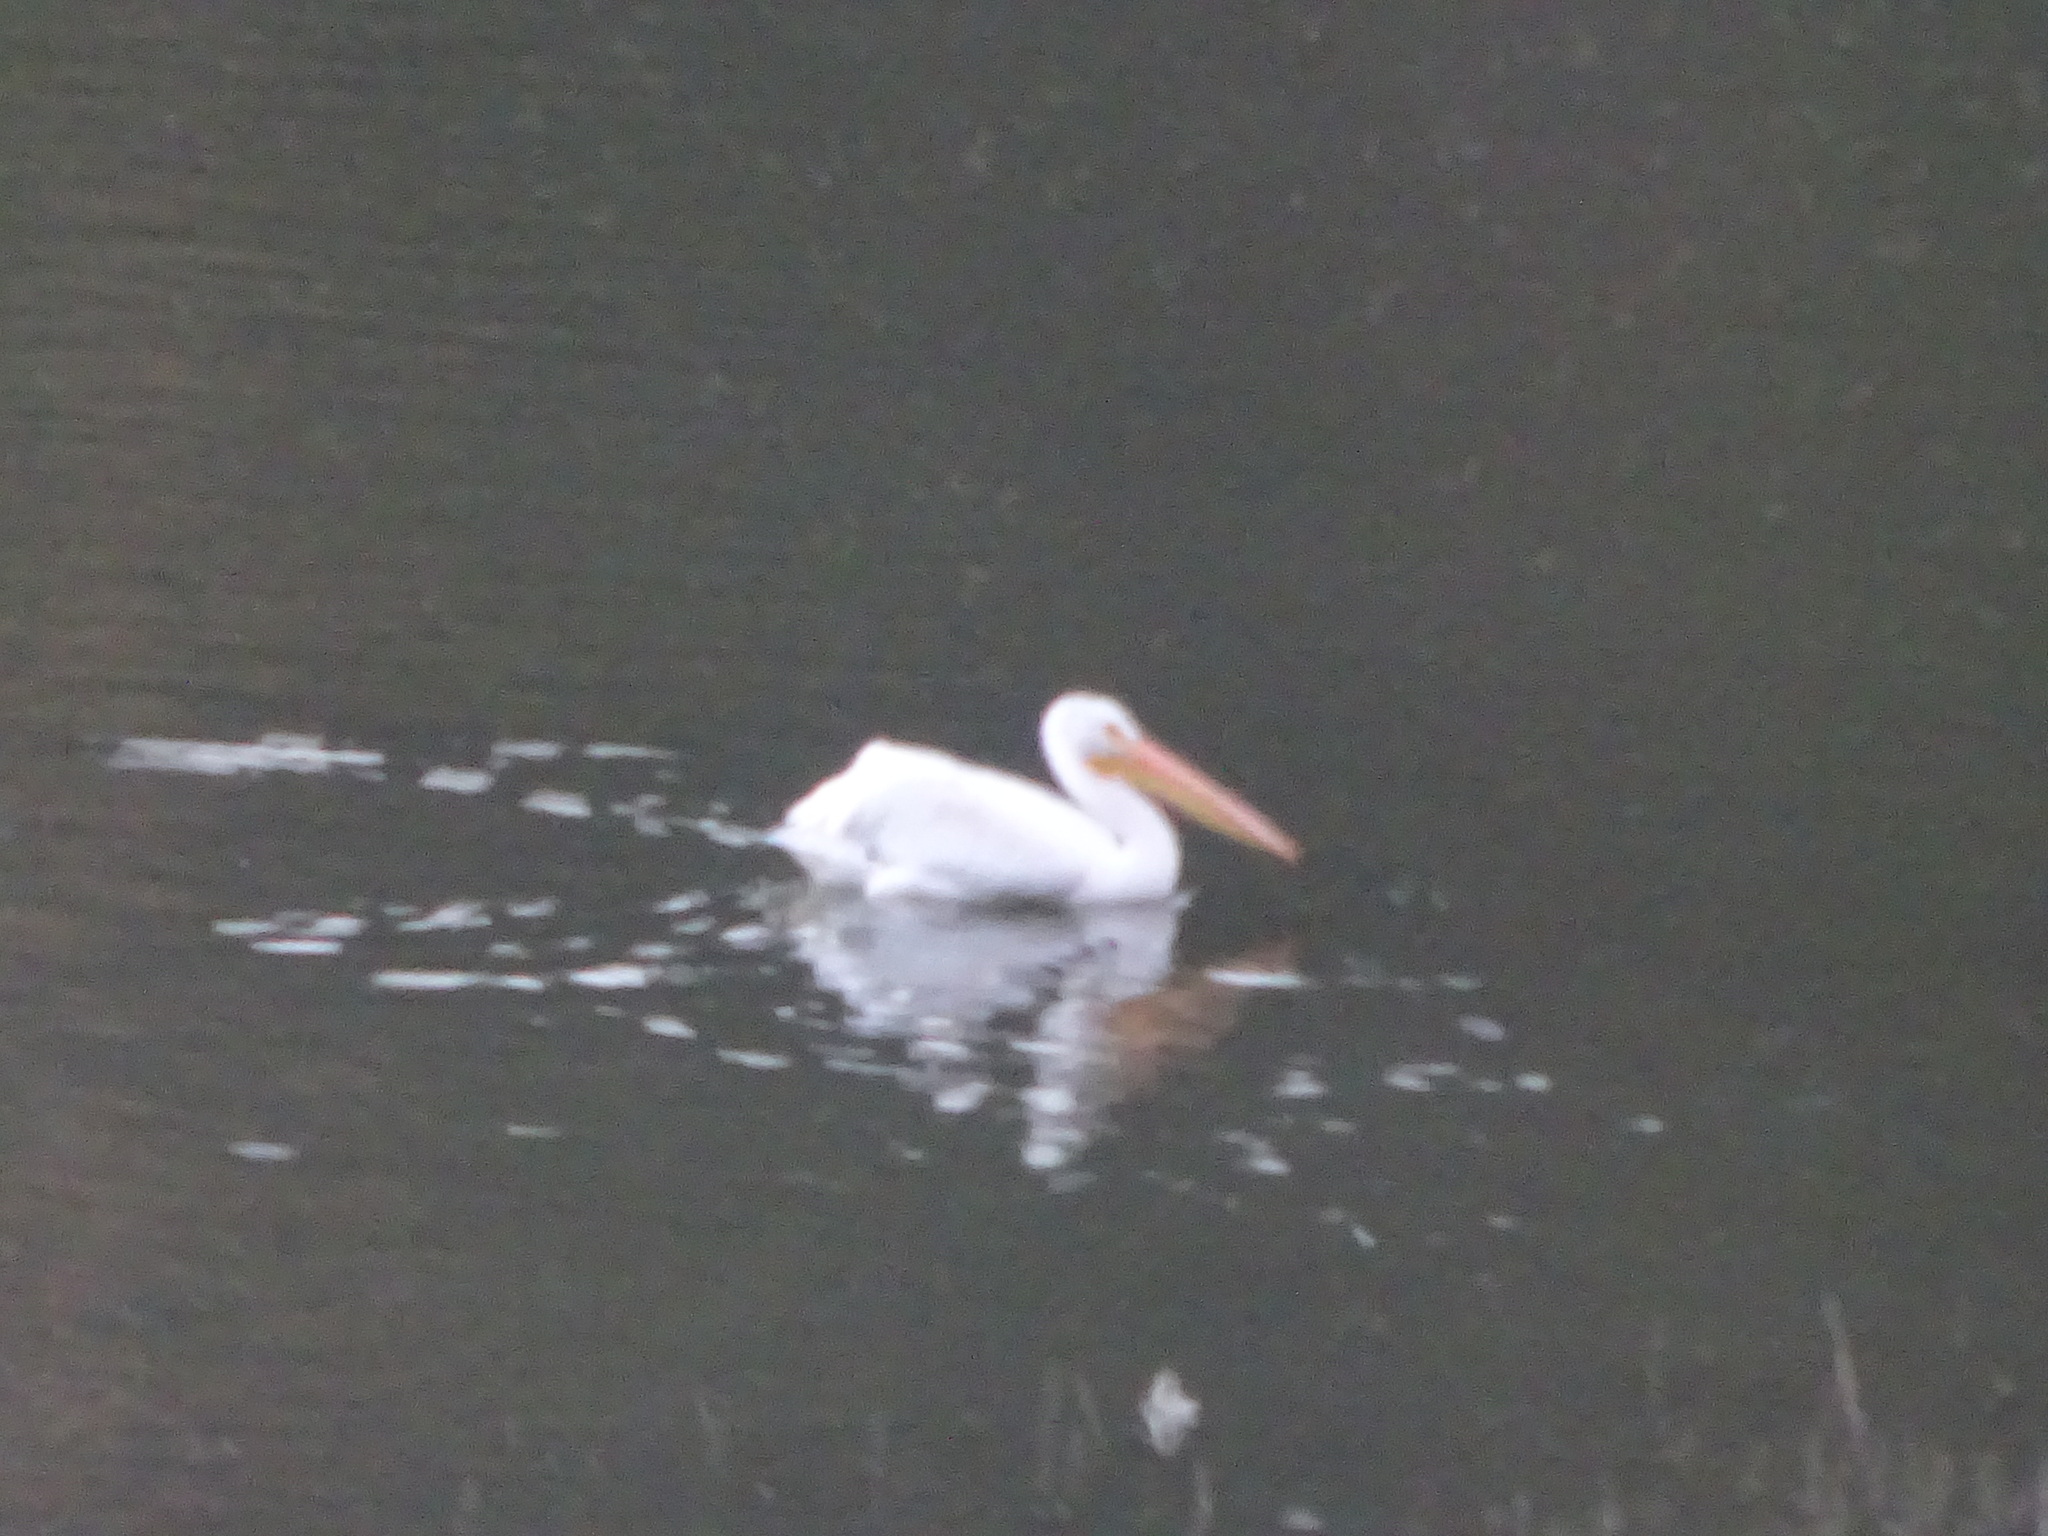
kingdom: Animalia
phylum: Chordata
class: Aves
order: Pelecaniformes
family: Pelecanidae
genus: Pelecanus
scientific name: Pelecanus erythrorhynchos
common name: American white pelican
